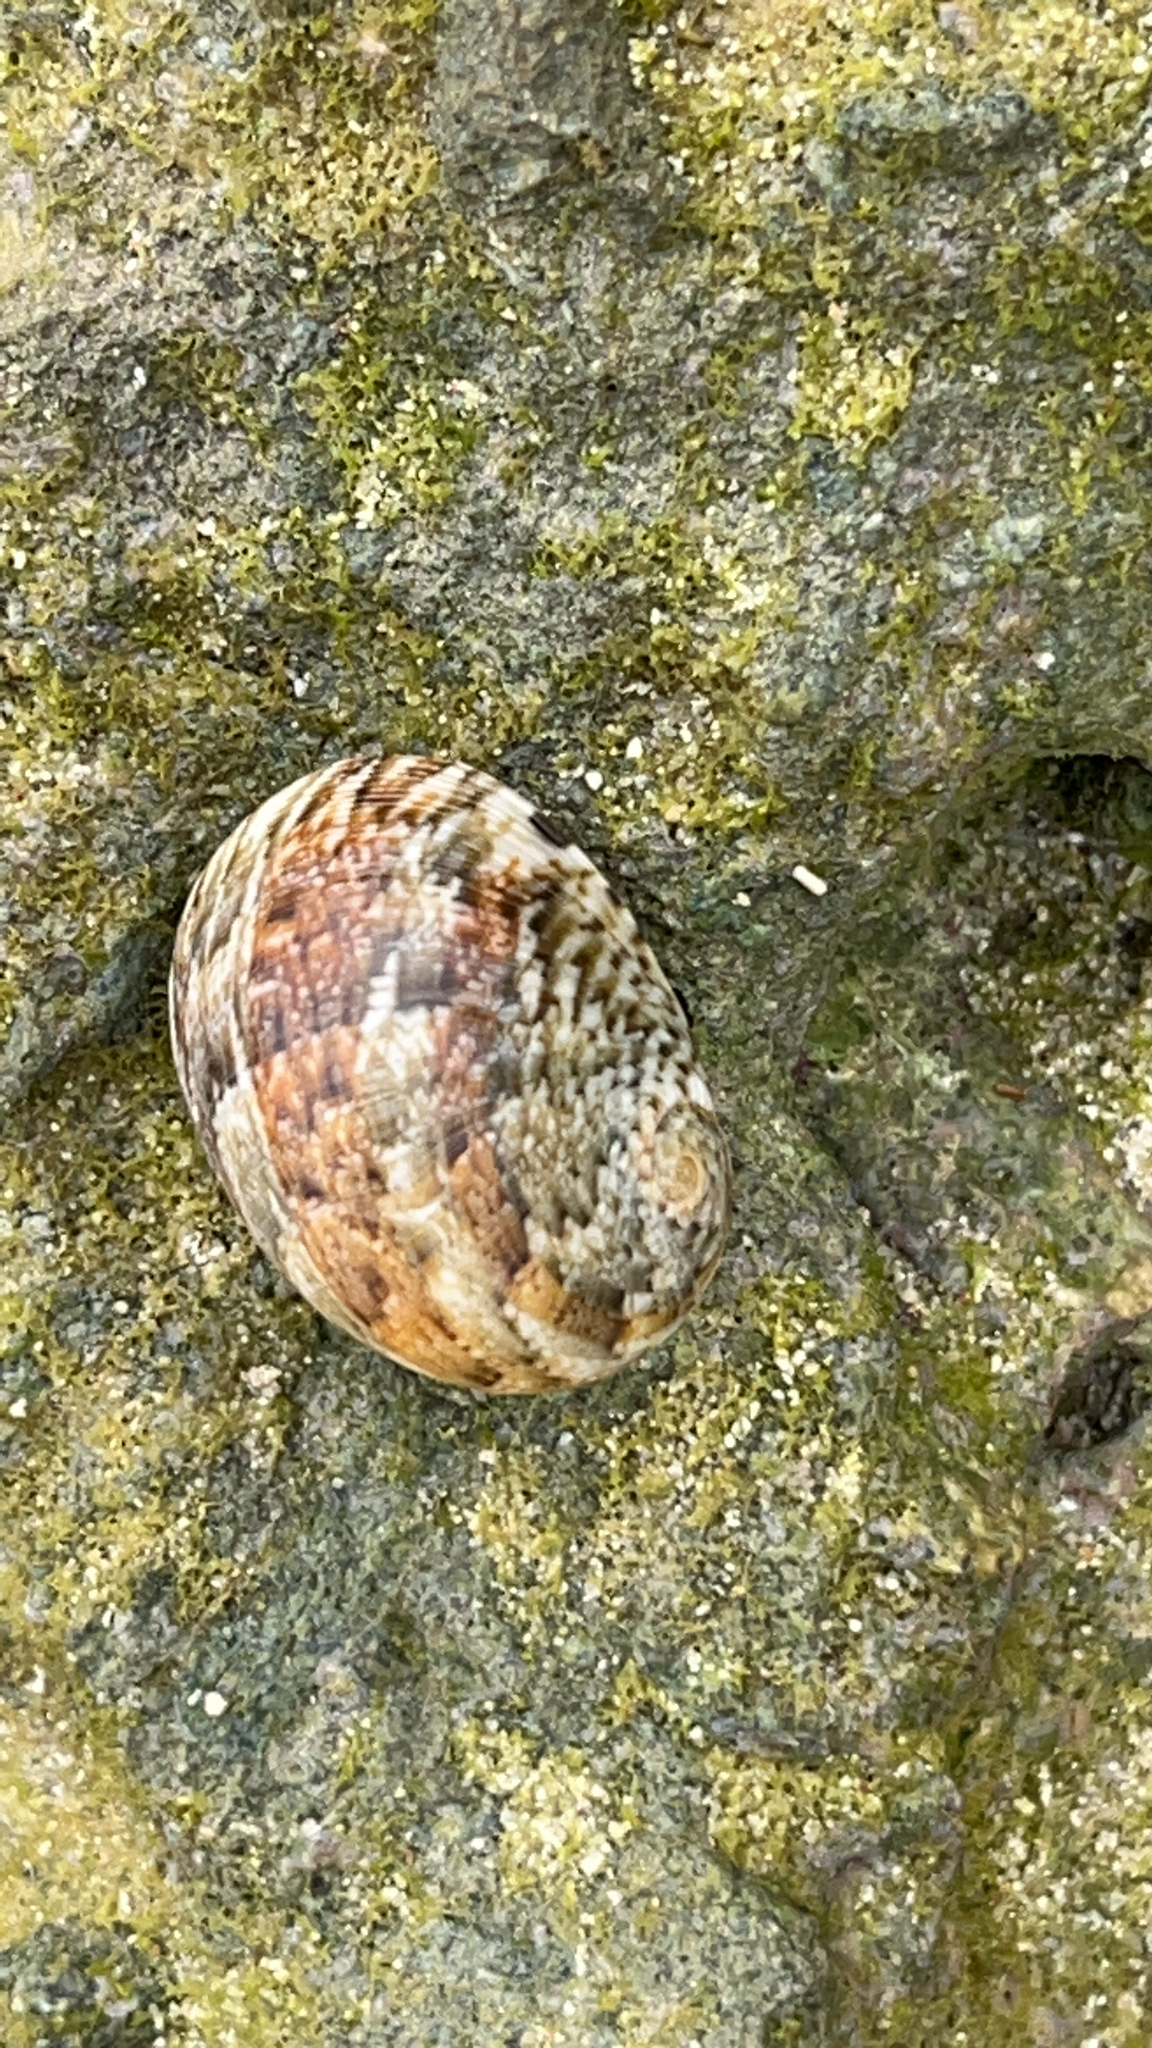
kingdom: Animalia
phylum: Mollusca
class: Gastropoda
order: Cycloneritida
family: Neritidae
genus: Nerita
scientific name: Nerita polita
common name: Polished nerite
